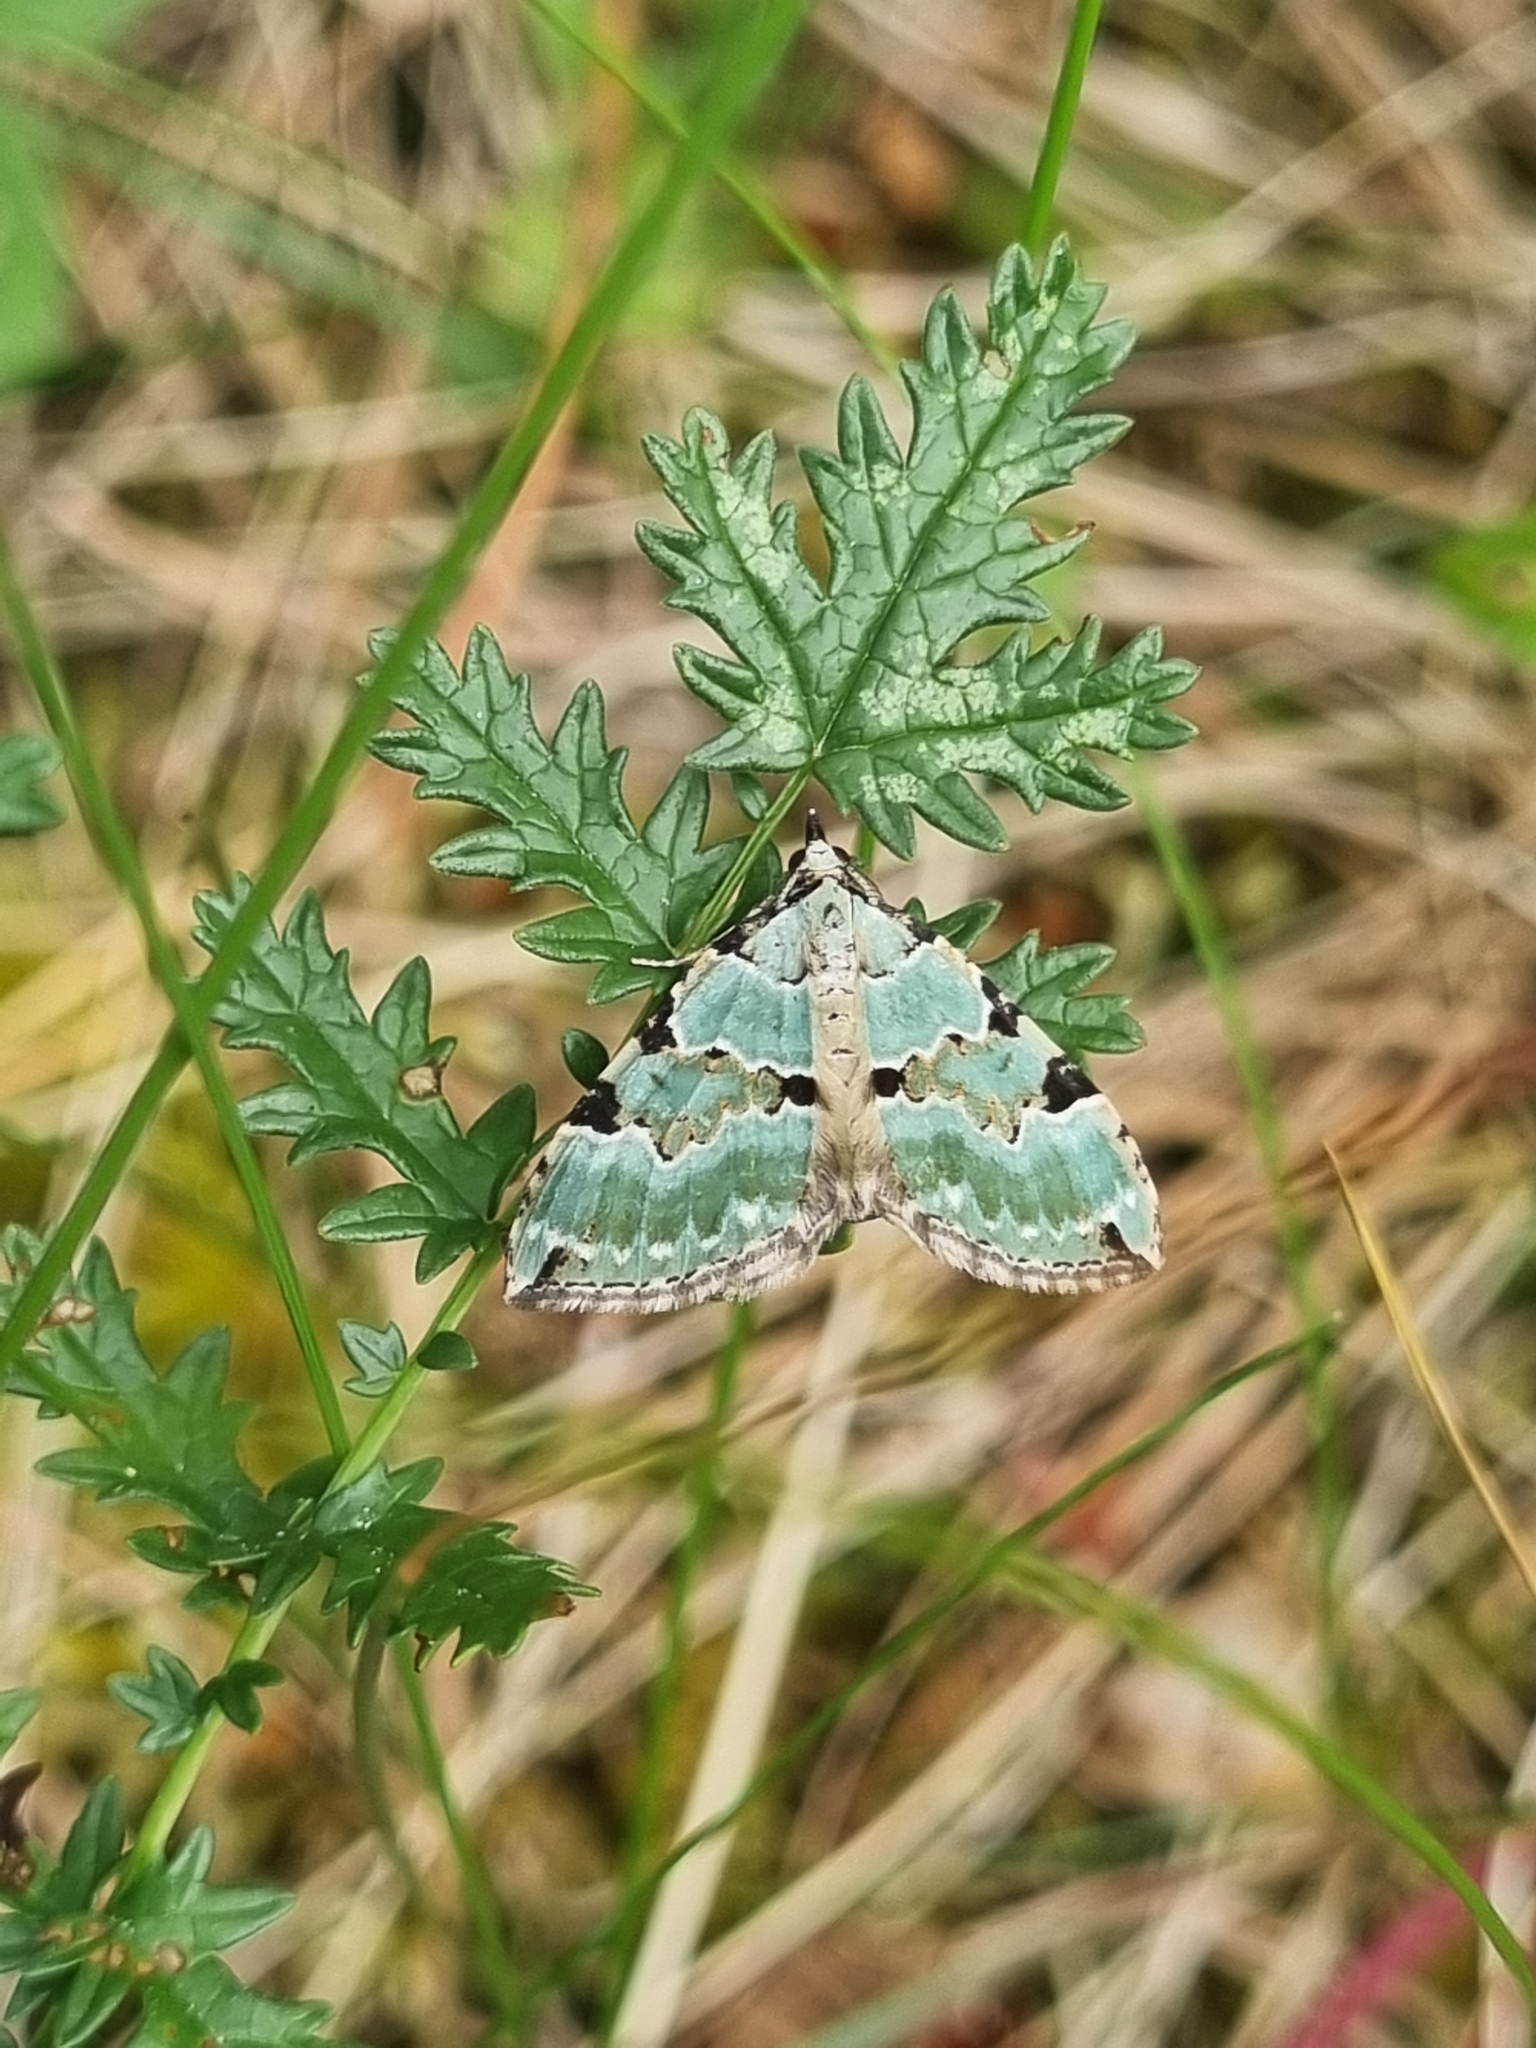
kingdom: Animalia
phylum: Arthropoda
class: Insecta
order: Lepidoptera
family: Geometridae
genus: Colostygia
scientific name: Colostygia pectinataria
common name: Green carpet
